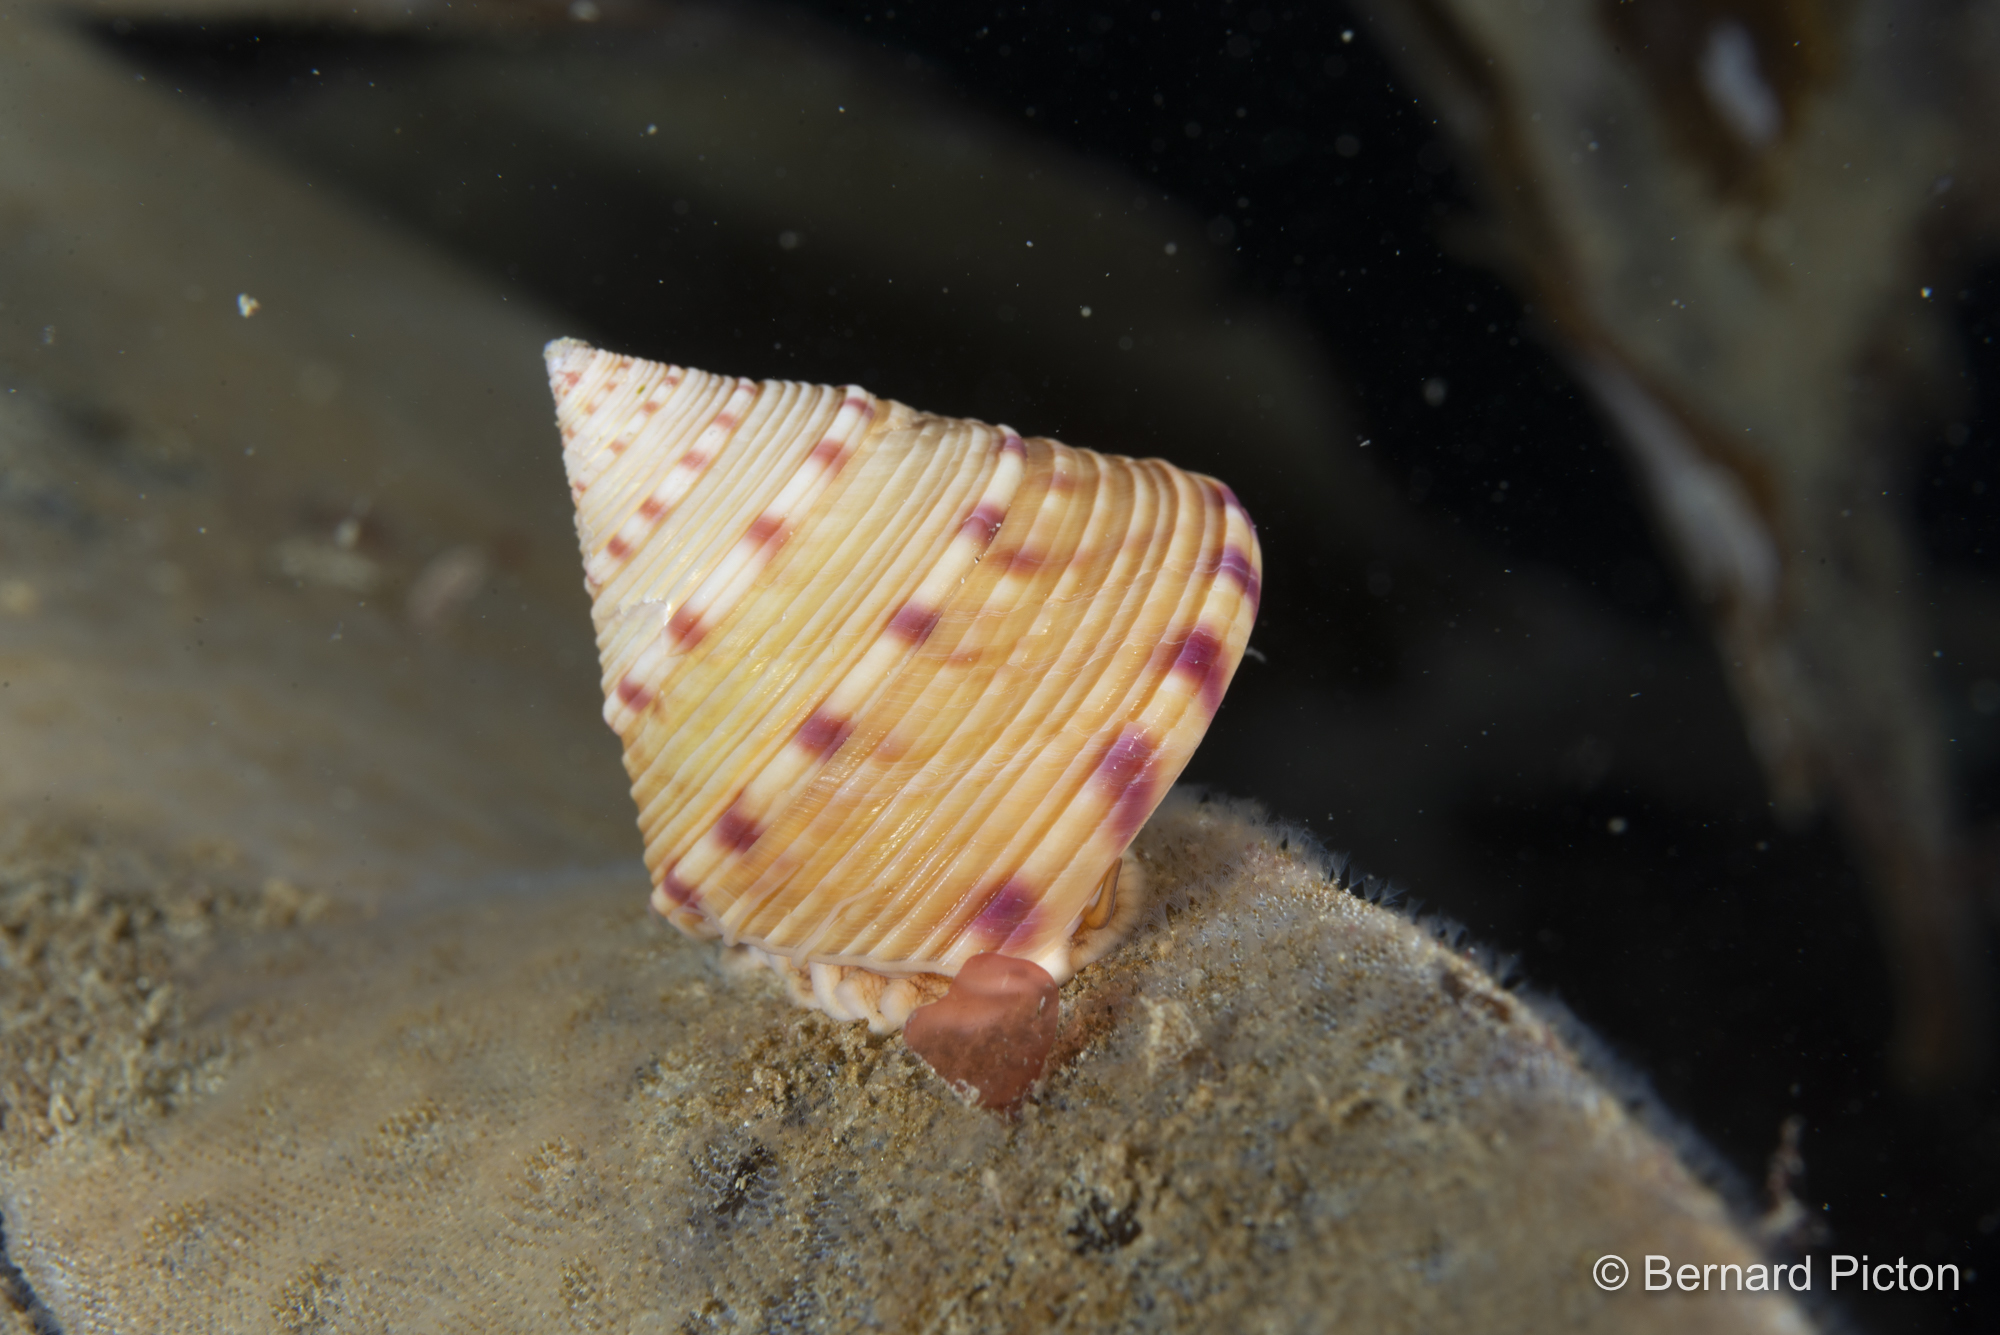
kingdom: Animalia
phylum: Mollusca
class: Gastropoda
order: Trochida
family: Calliostomatidae
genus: Calliostoma
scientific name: Calliostoma zizyphinum
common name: Painted top shell
